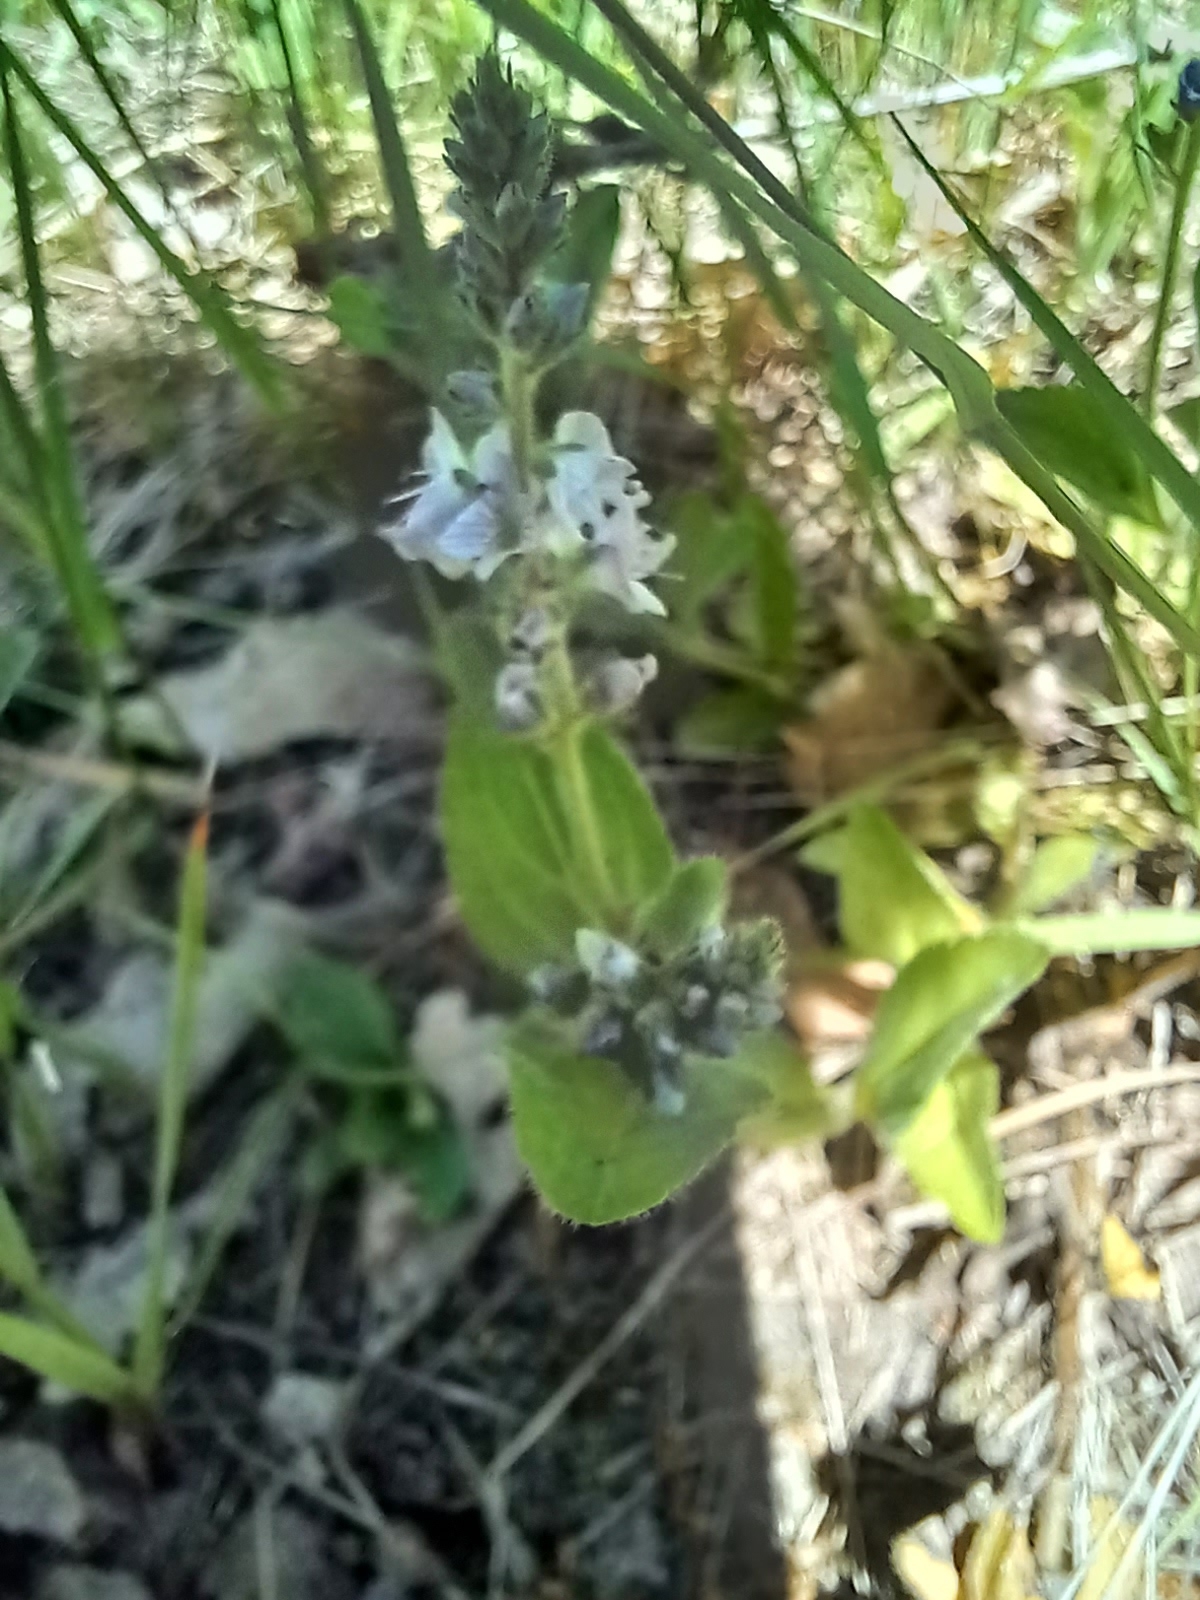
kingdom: Plantae
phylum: Tracheophyta
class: Magnoliopsida
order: Lamiales
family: Plantaginaceae
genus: Veronica
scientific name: Veronica officinalis
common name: Common speedwell
